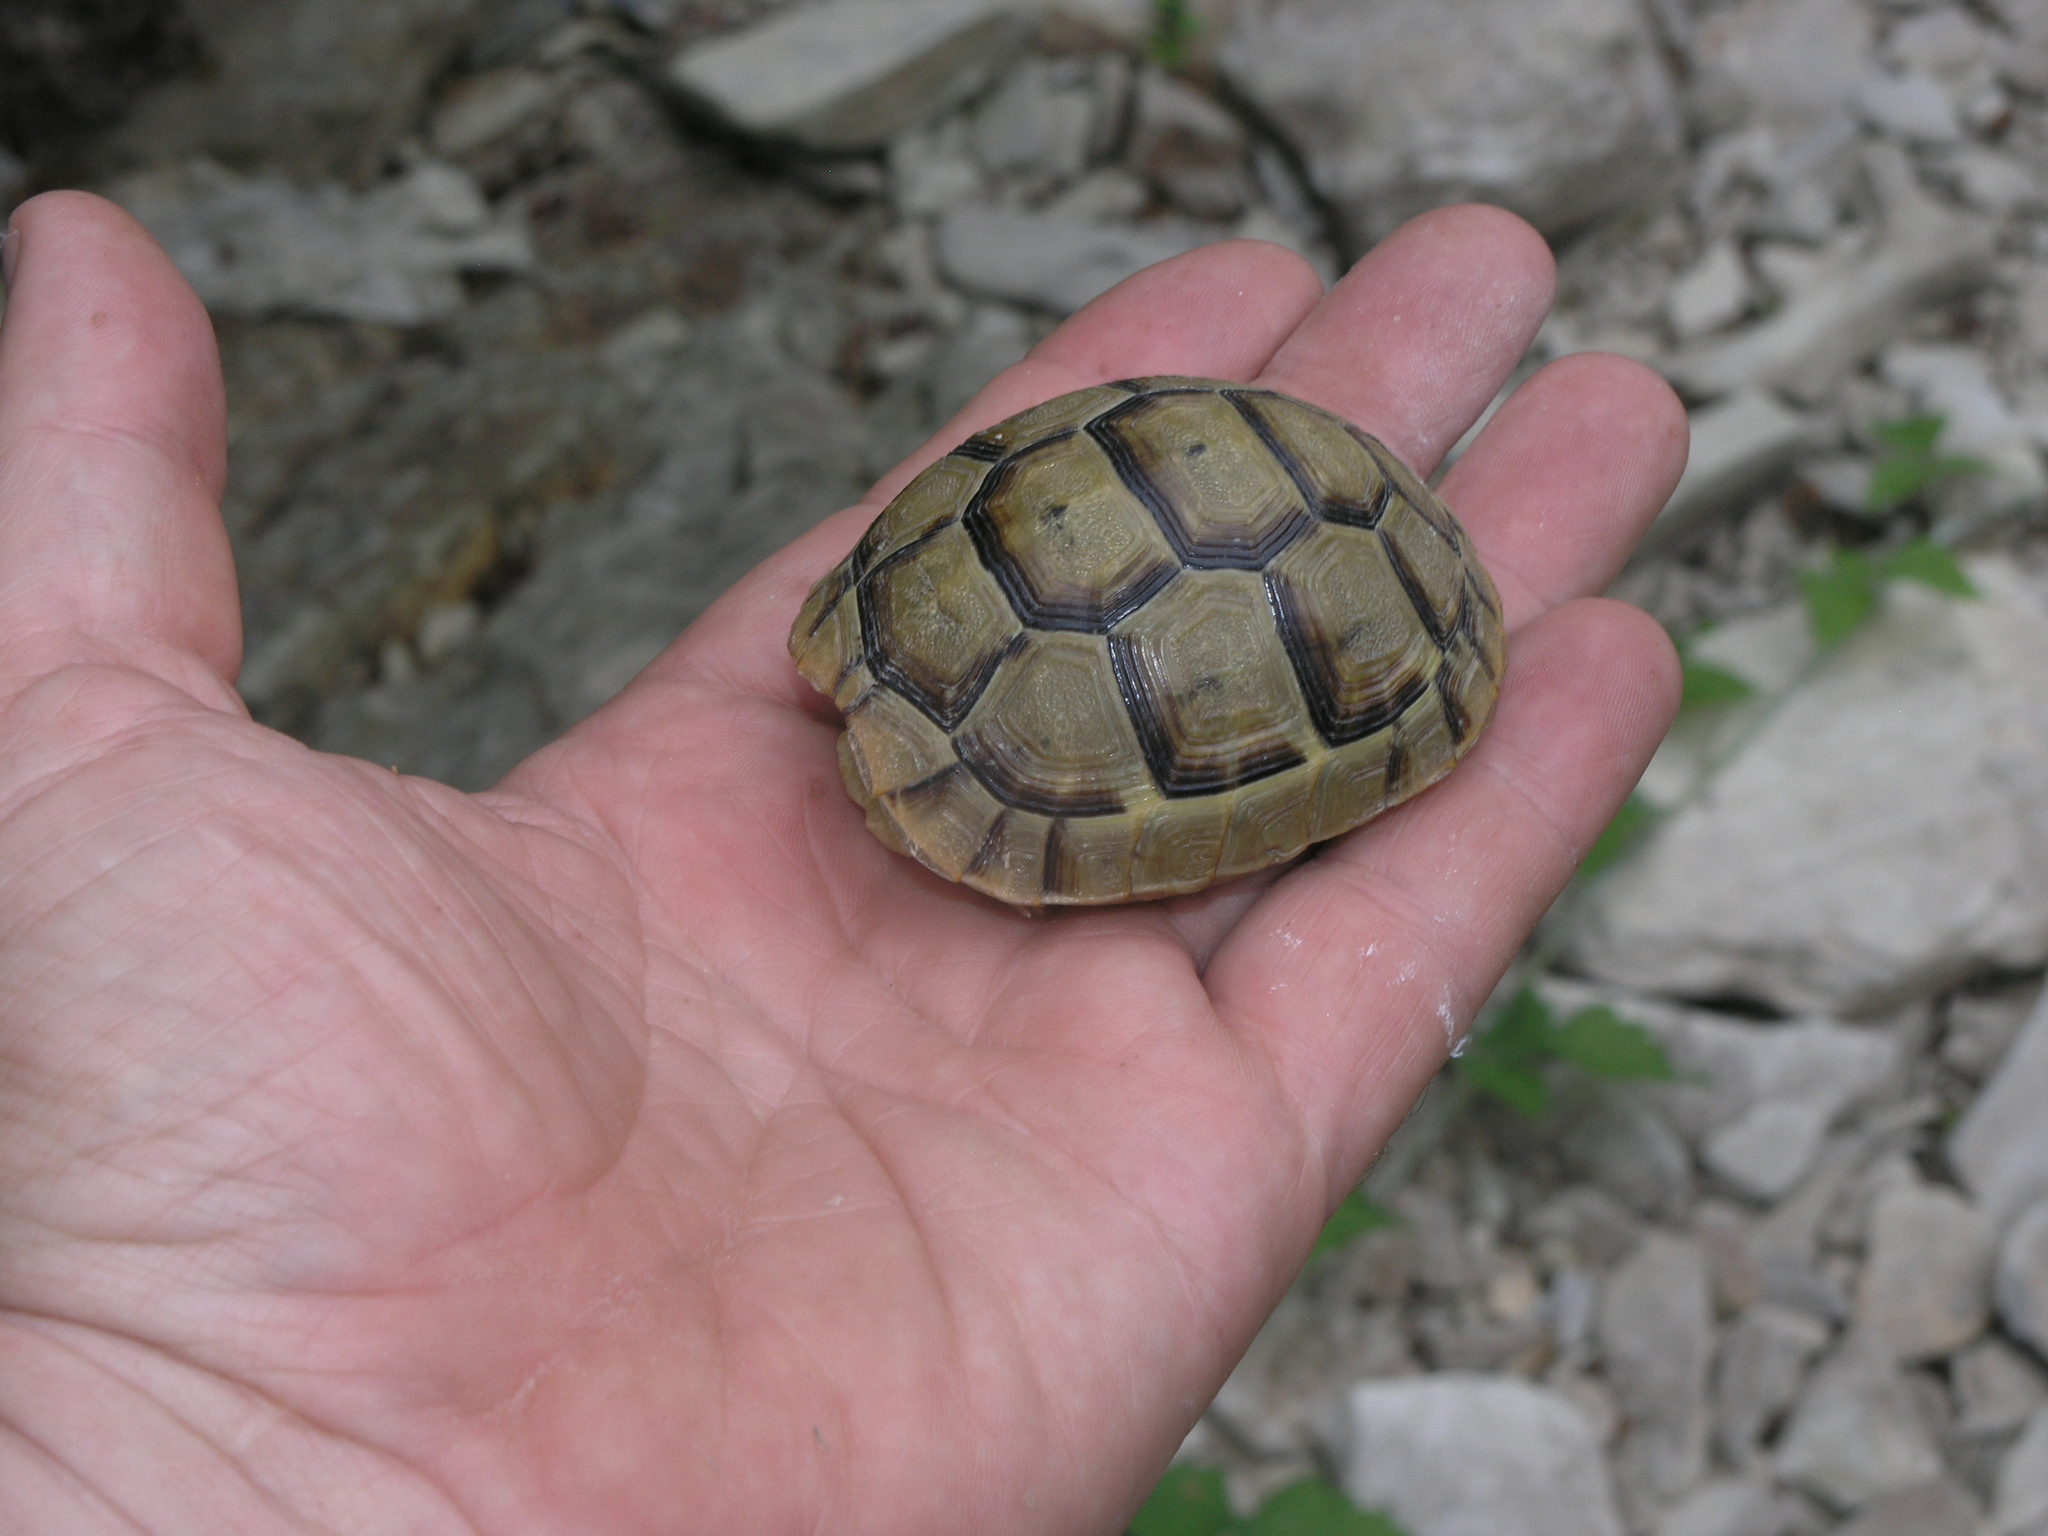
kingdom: Animalia
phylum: Chordata
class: Testudines
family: Testudinidae
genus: Testudo
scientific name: Testudo graeca
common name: Common tortoise
